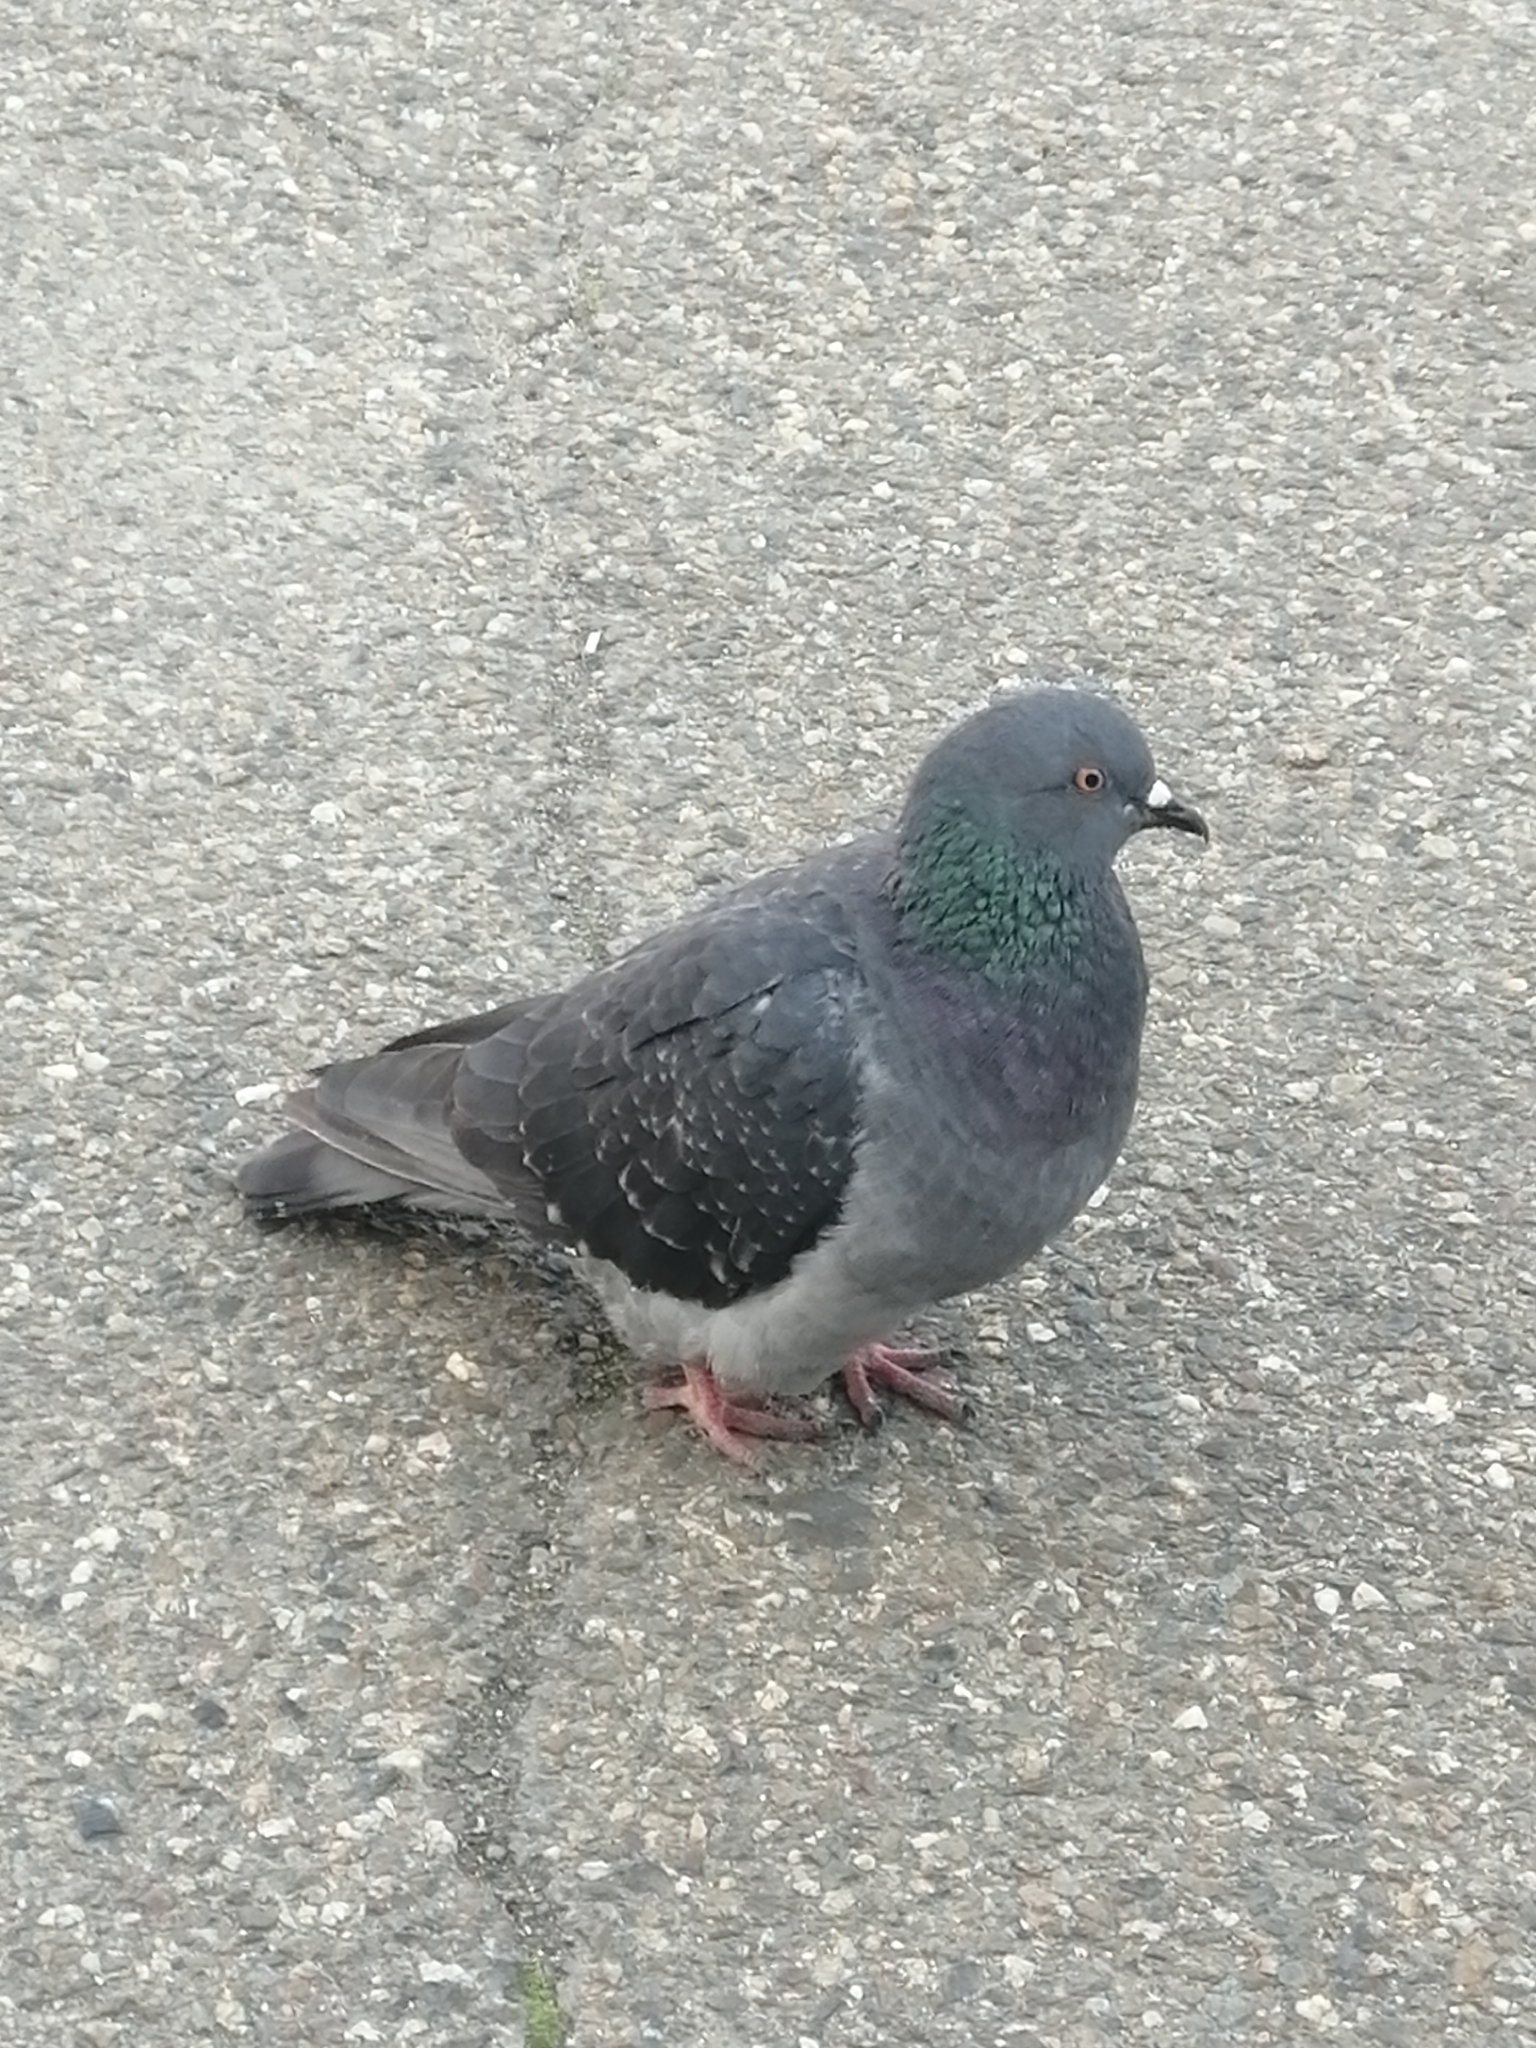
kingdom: Animalia
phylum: Chordata
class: Aves
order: Columbiformes
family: Columbidae
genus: Columba
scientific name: Columba livia
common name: Rock pigeon
